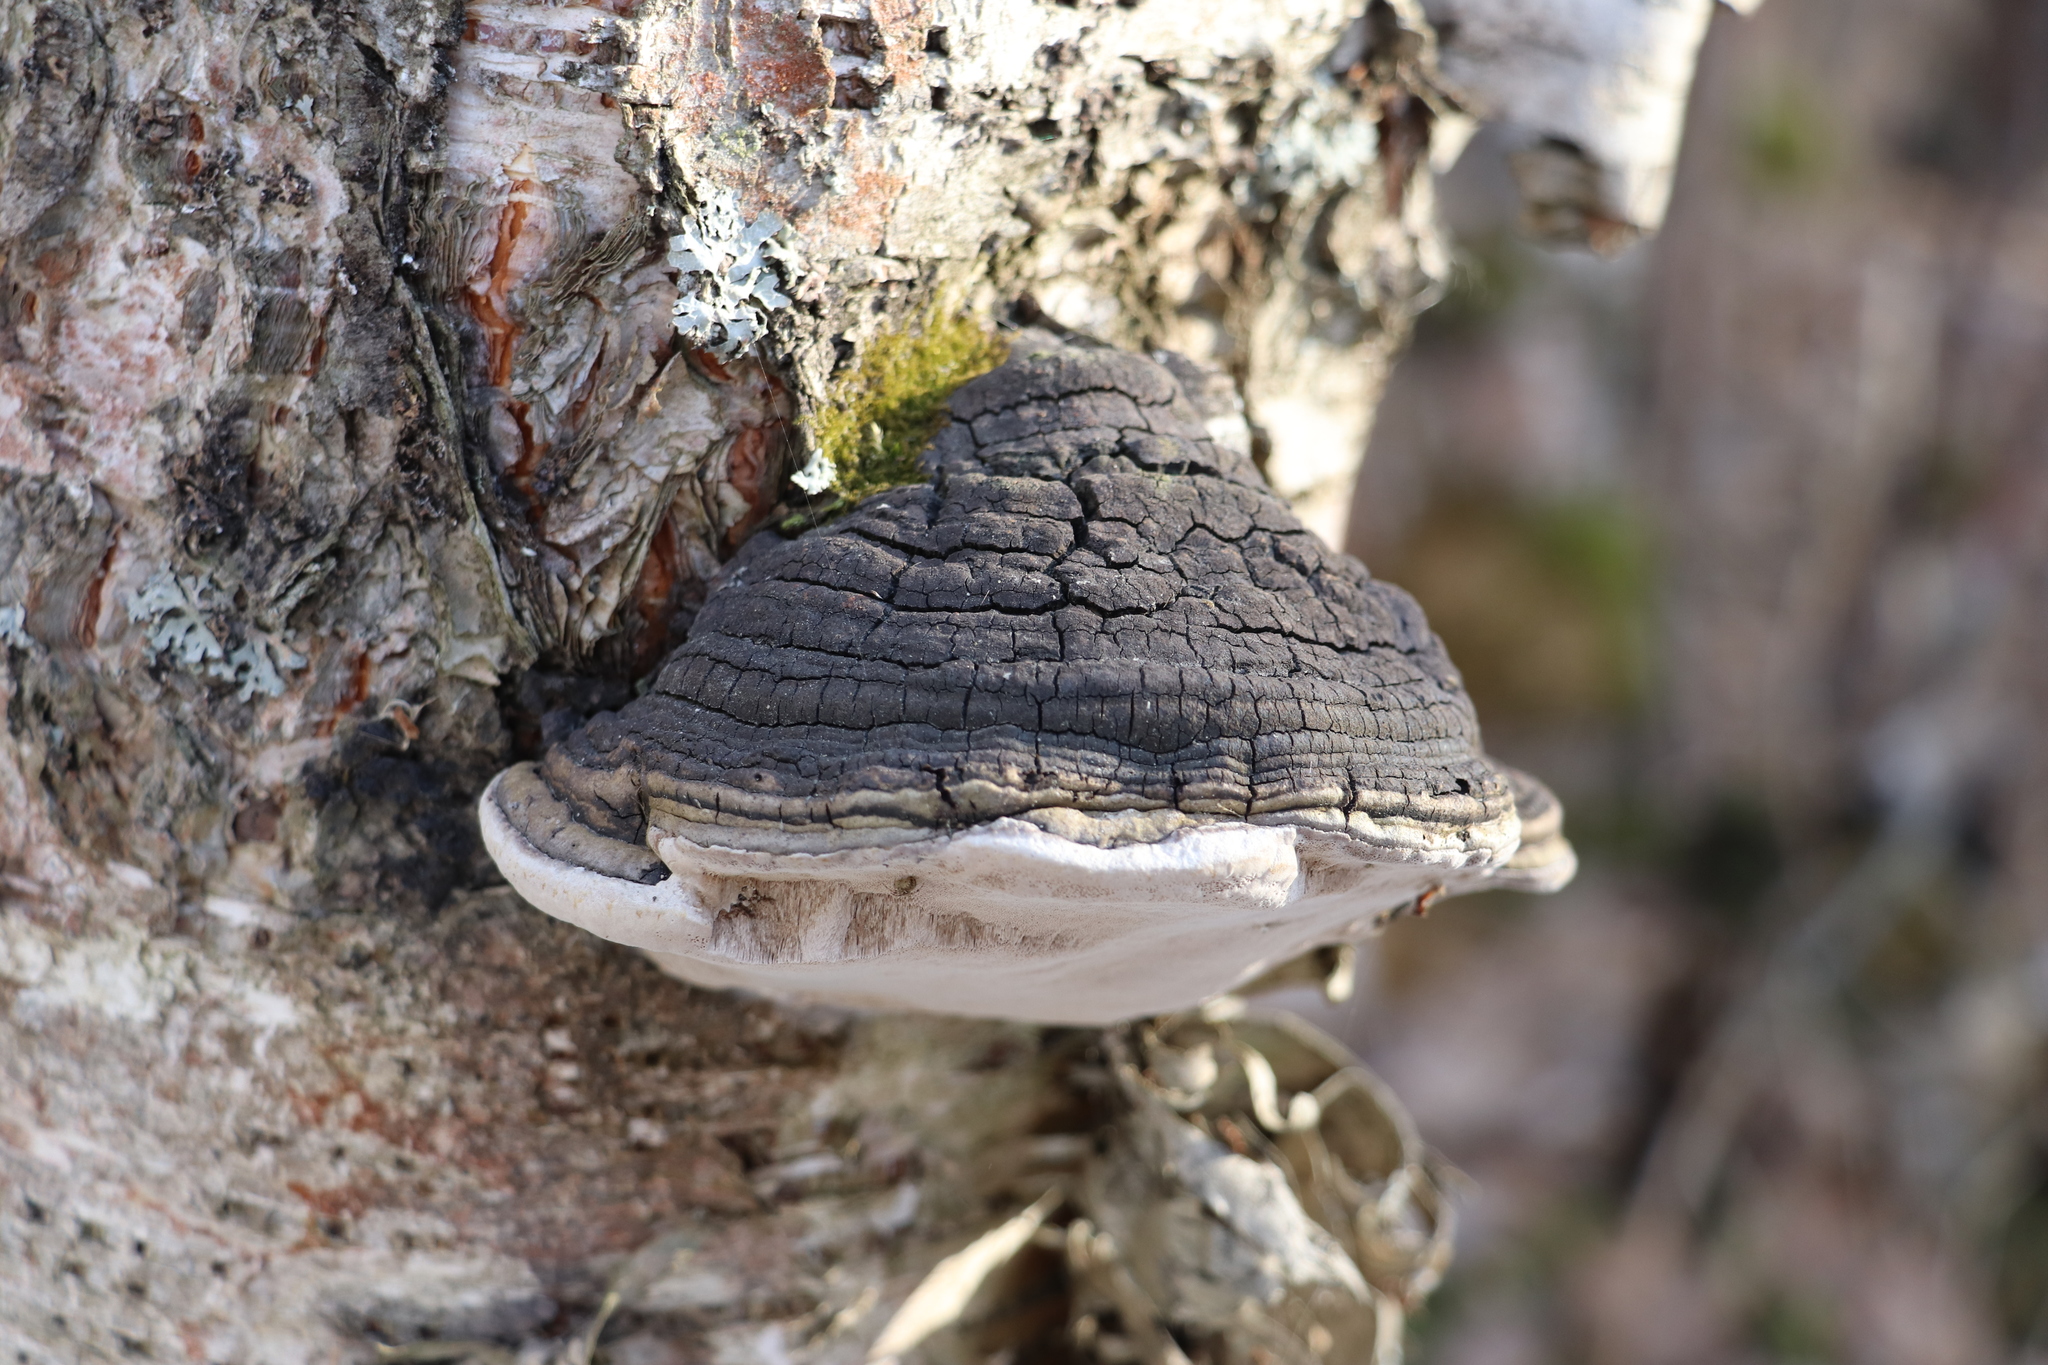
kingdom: Fungi
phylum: Basidiomycota
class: Agaricomycetes
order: Hymenochaetales
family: Hymenochaetaceae
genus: Phellinus
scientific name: Phellinus igniarius
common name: Willow bracket
